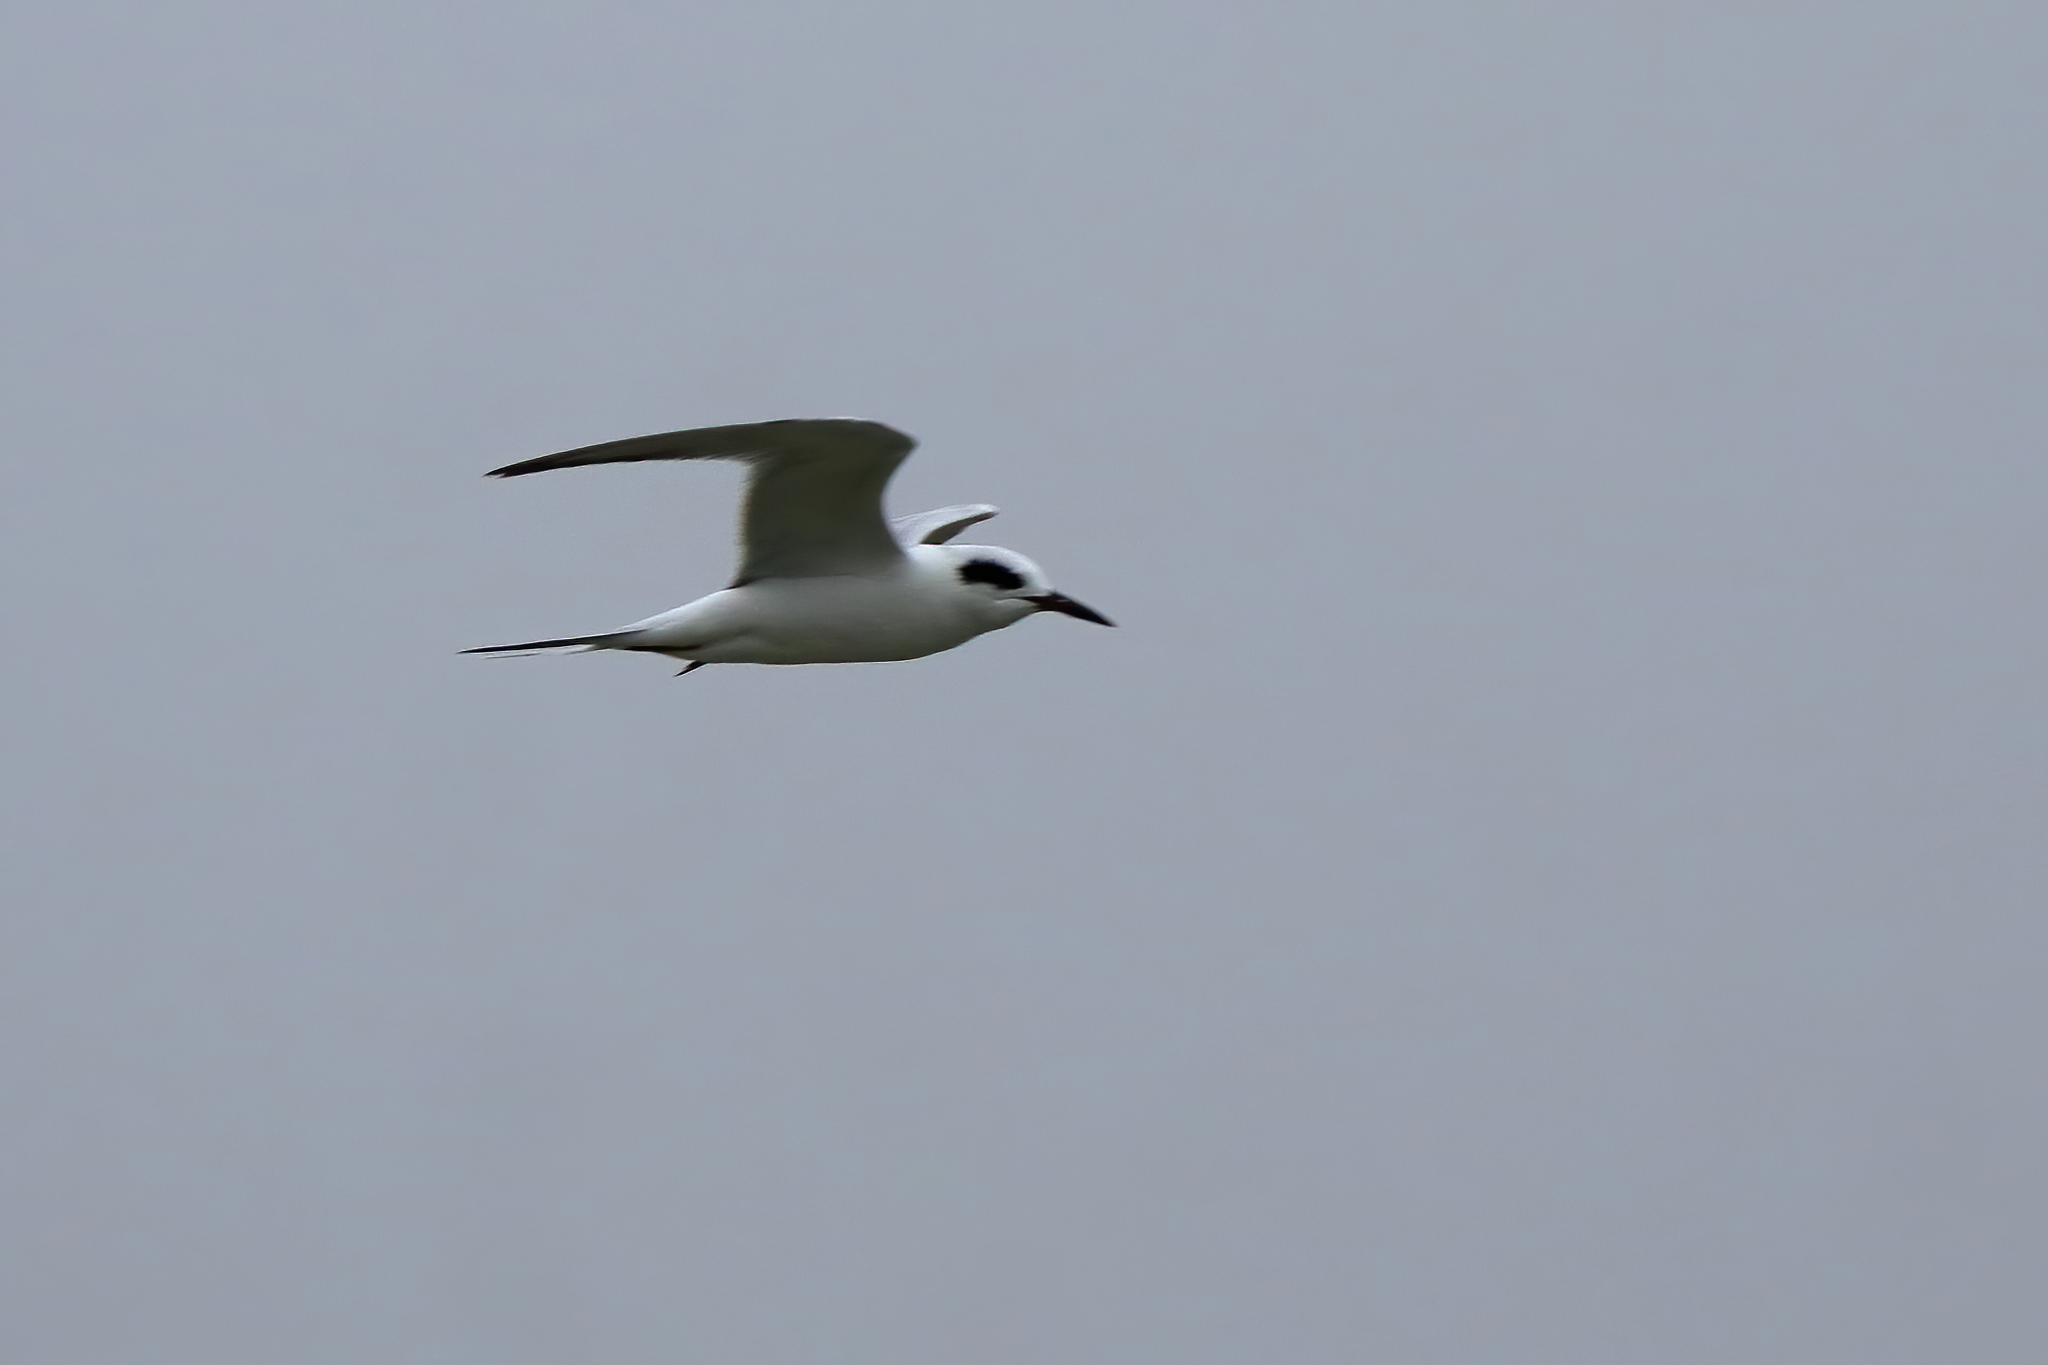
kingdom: Animalia
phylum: Chordata
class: Aves
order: Charadriiformes
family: Laridae
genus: Sterna
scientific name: Sterna forsteri
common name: Forster's tern
